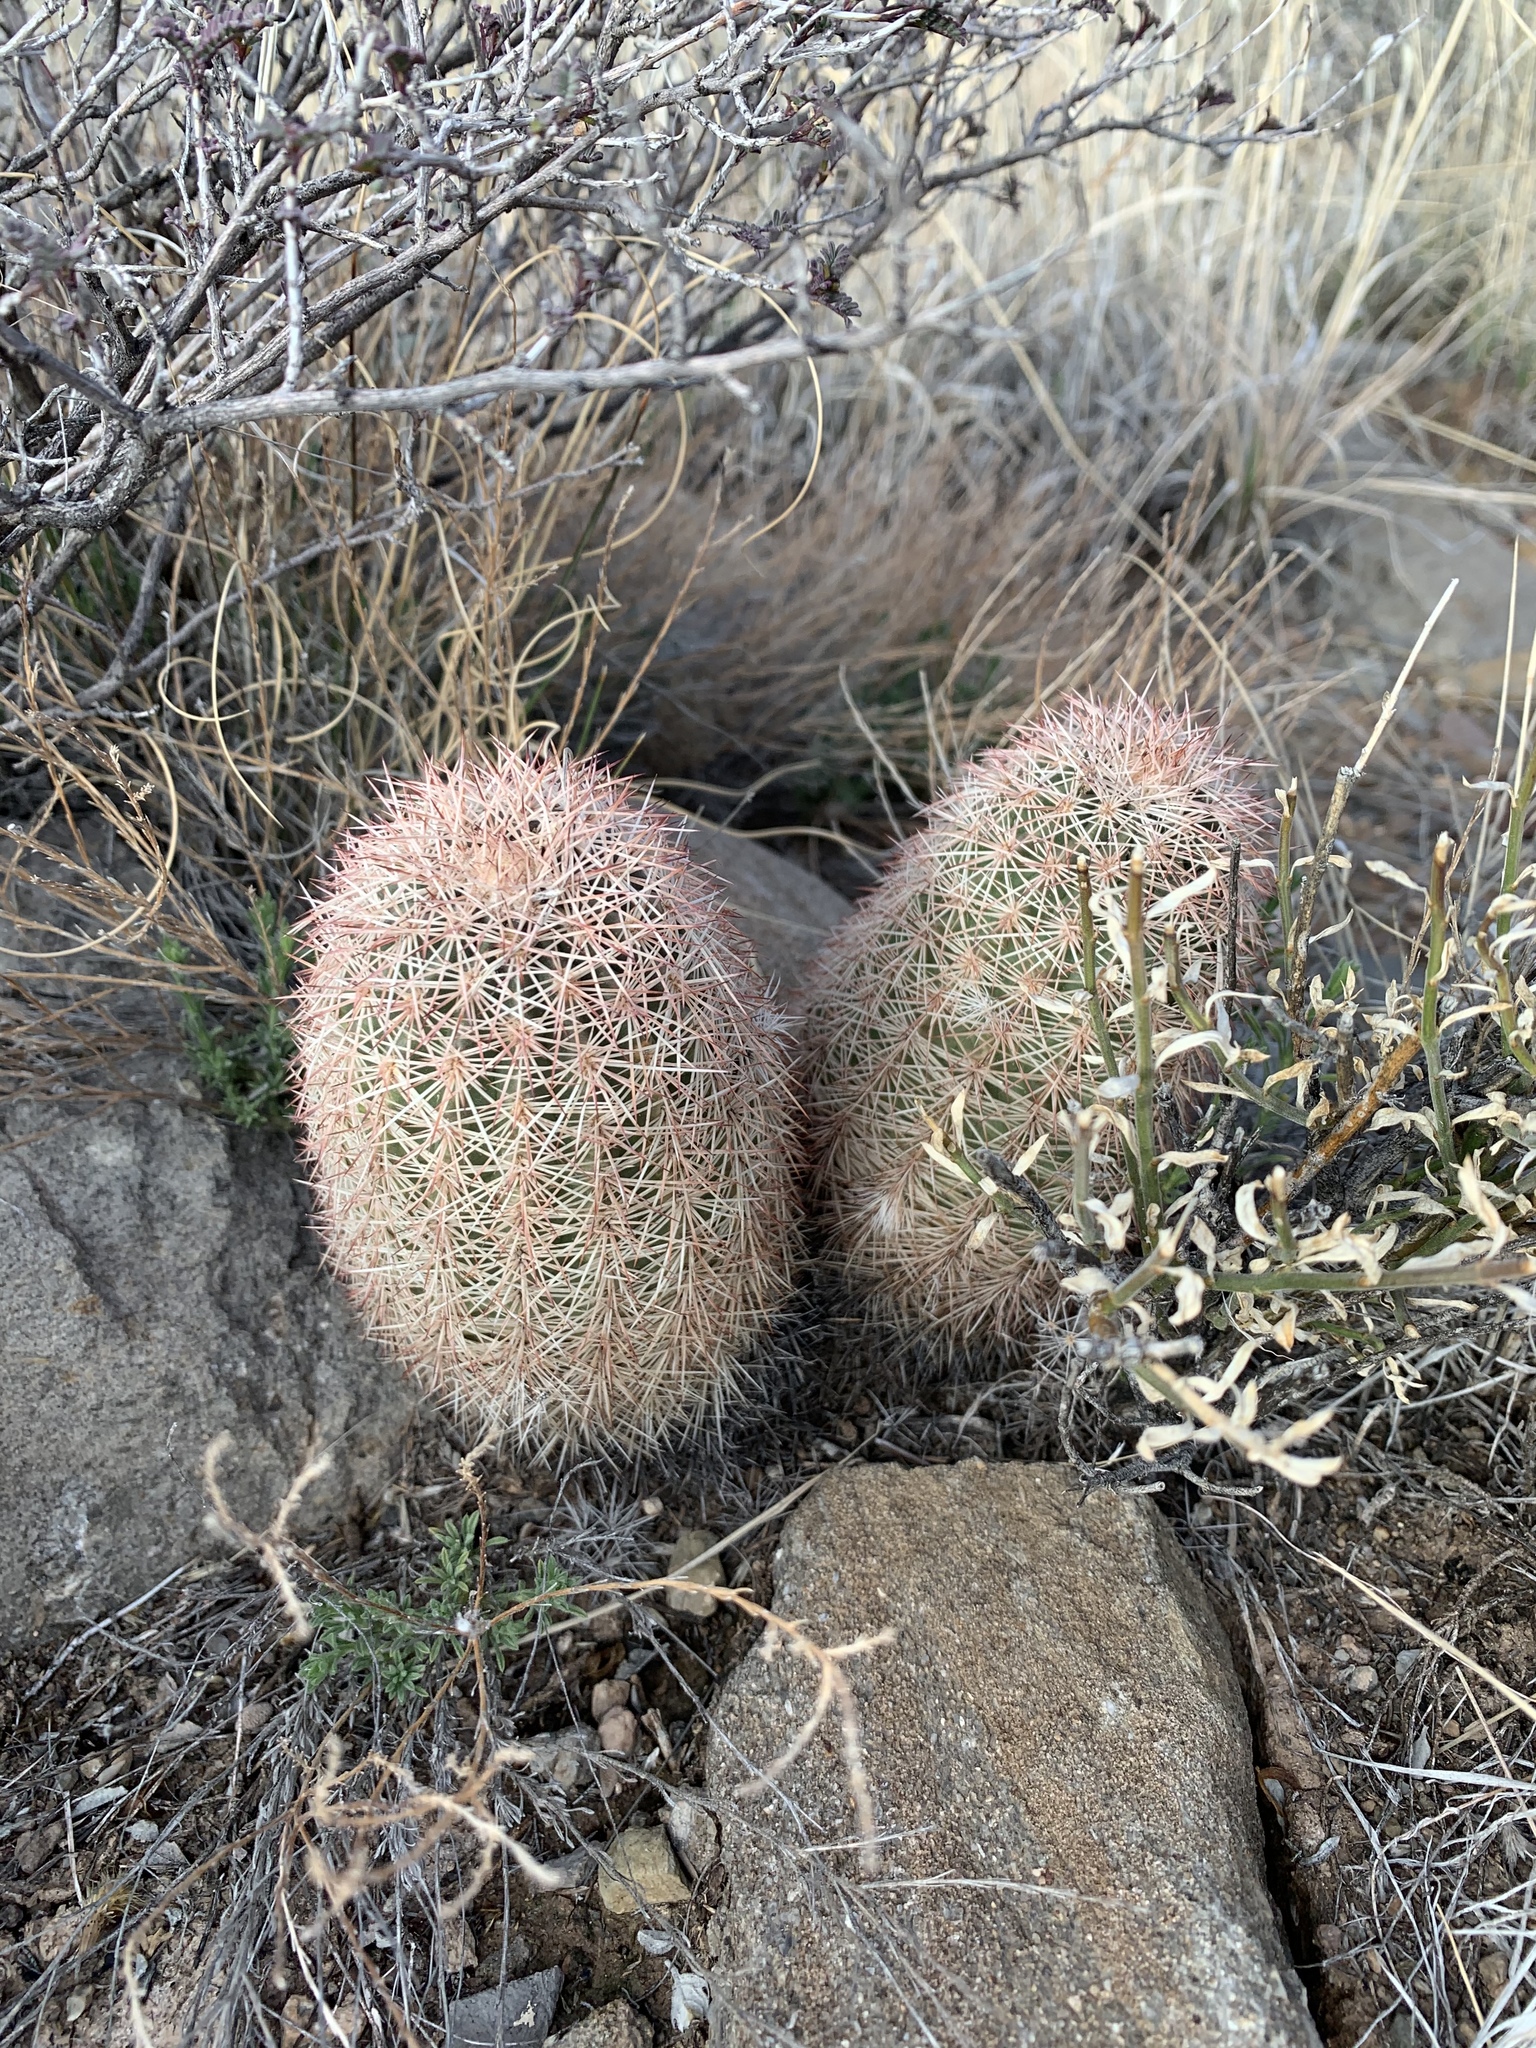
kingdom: Plantae
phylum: Tracheophyta
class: Magnoliopsida
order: Caryophyllales
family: Cactaceae
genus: Echinocereus
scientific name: Echinocereus dasyacanthus
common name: Spiny hedgehog cactus
